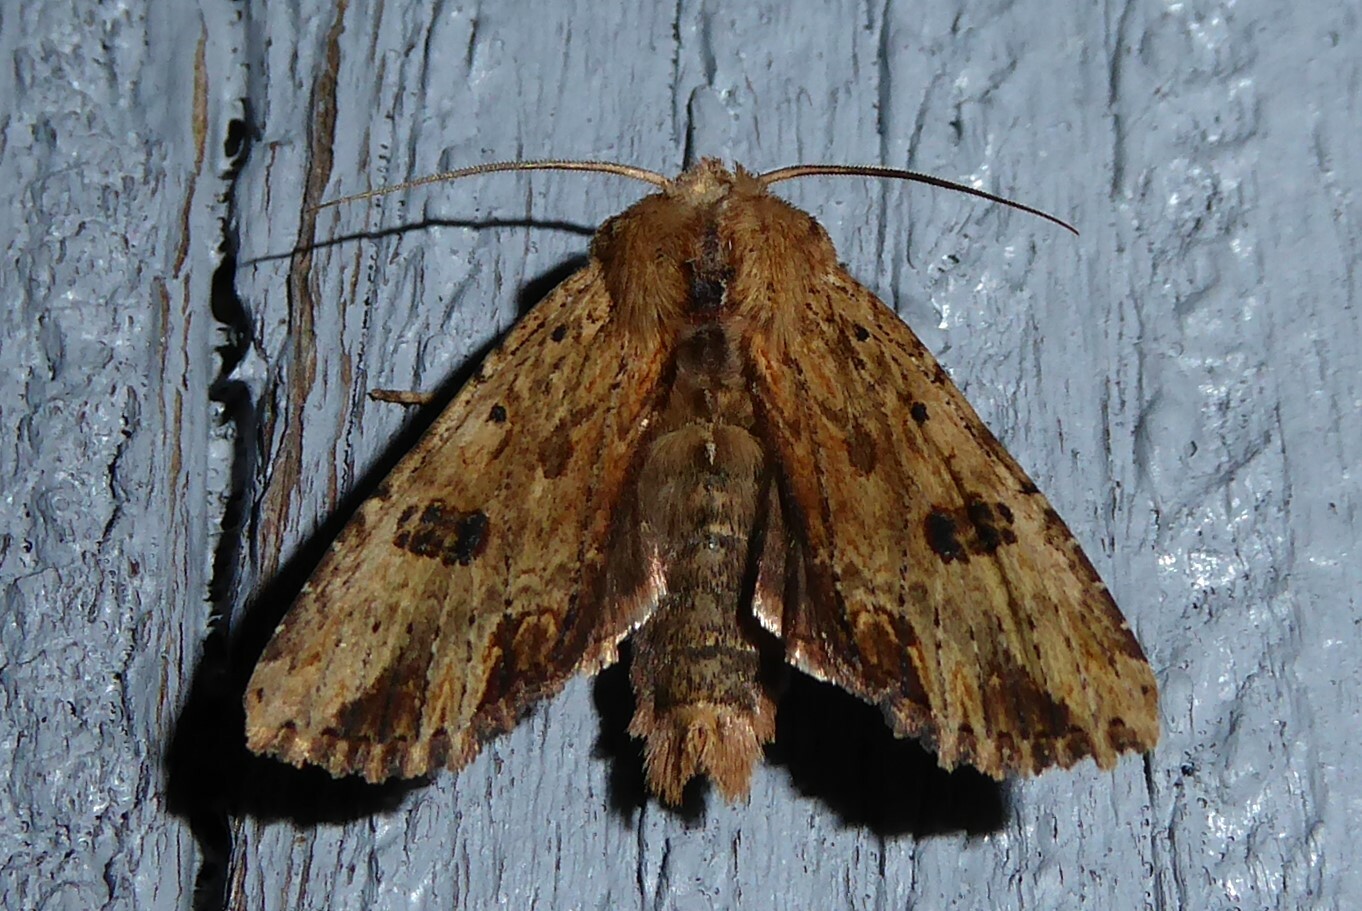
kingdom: Animalia
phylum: Arthropoda
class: Insecta
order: Lepidoptera
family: Noctuidae
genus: Ichneutica
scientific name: Ichneutica
